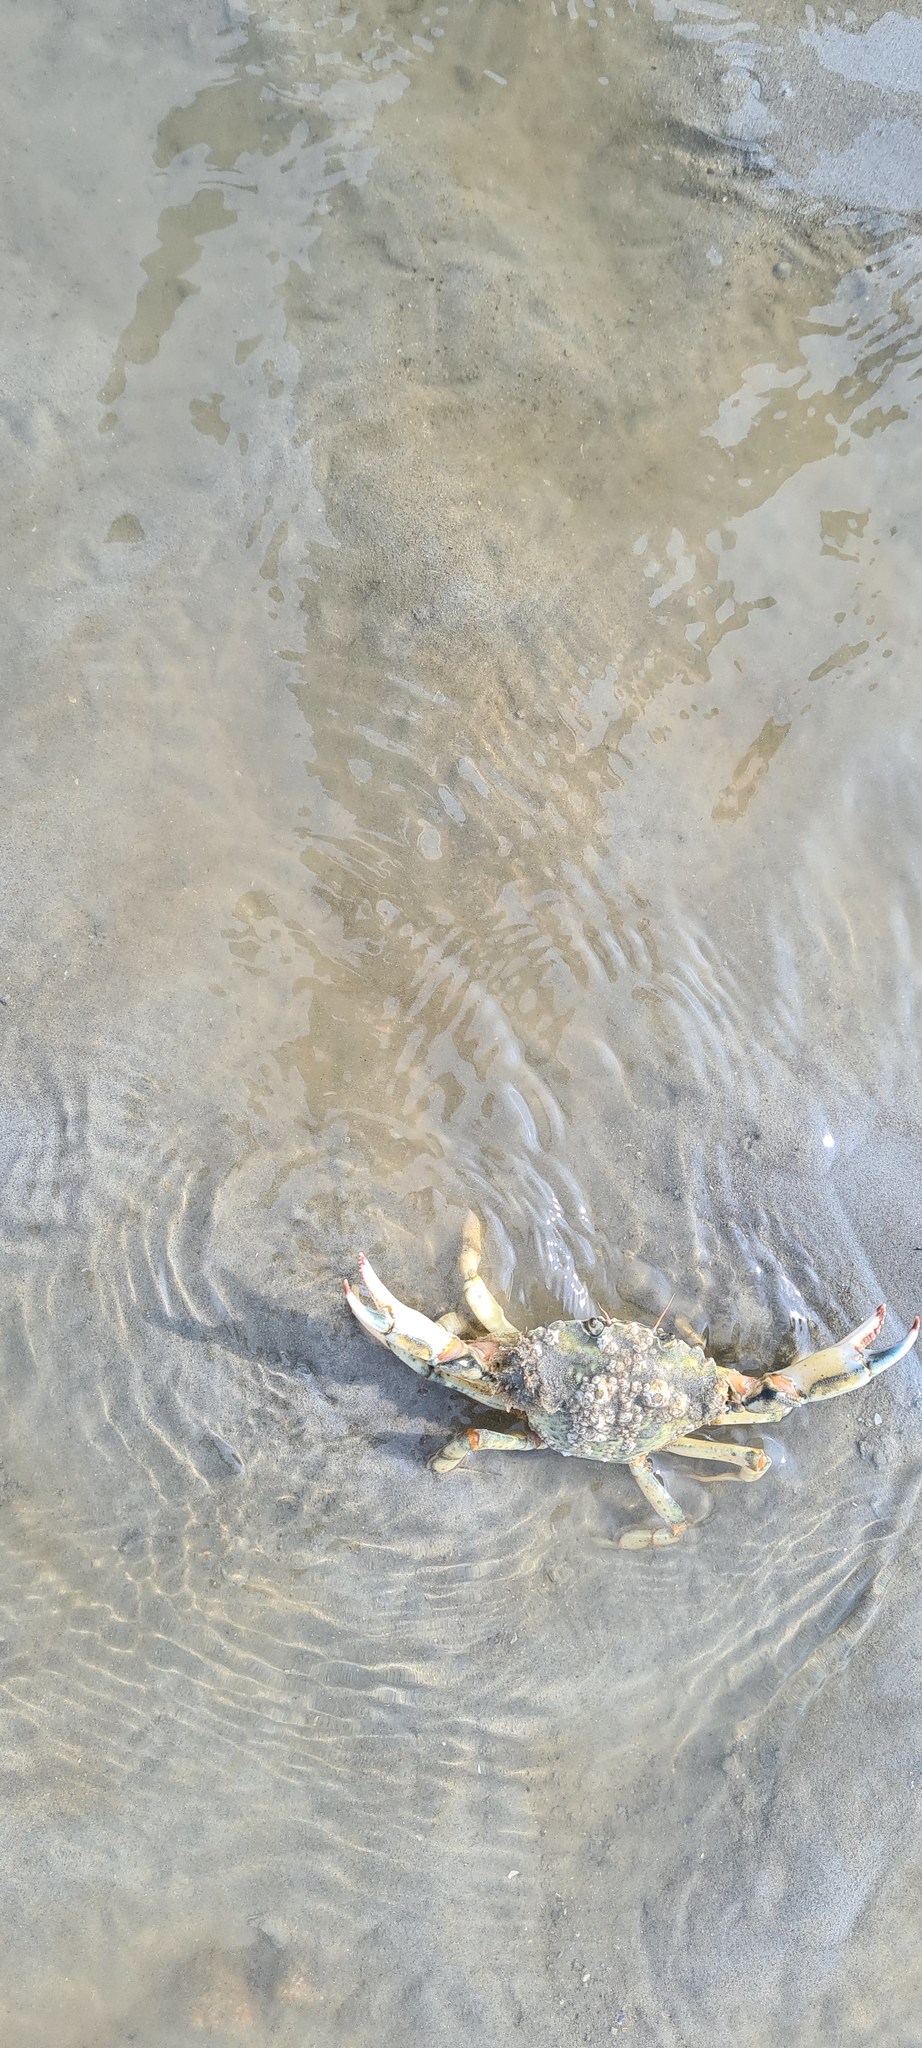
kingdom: Animalia
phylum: Arthropoda
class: Malacostraca
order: Decapoda
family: Carcinidae
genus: Carcinus
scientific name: Carcinus maenas
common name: European green crab
